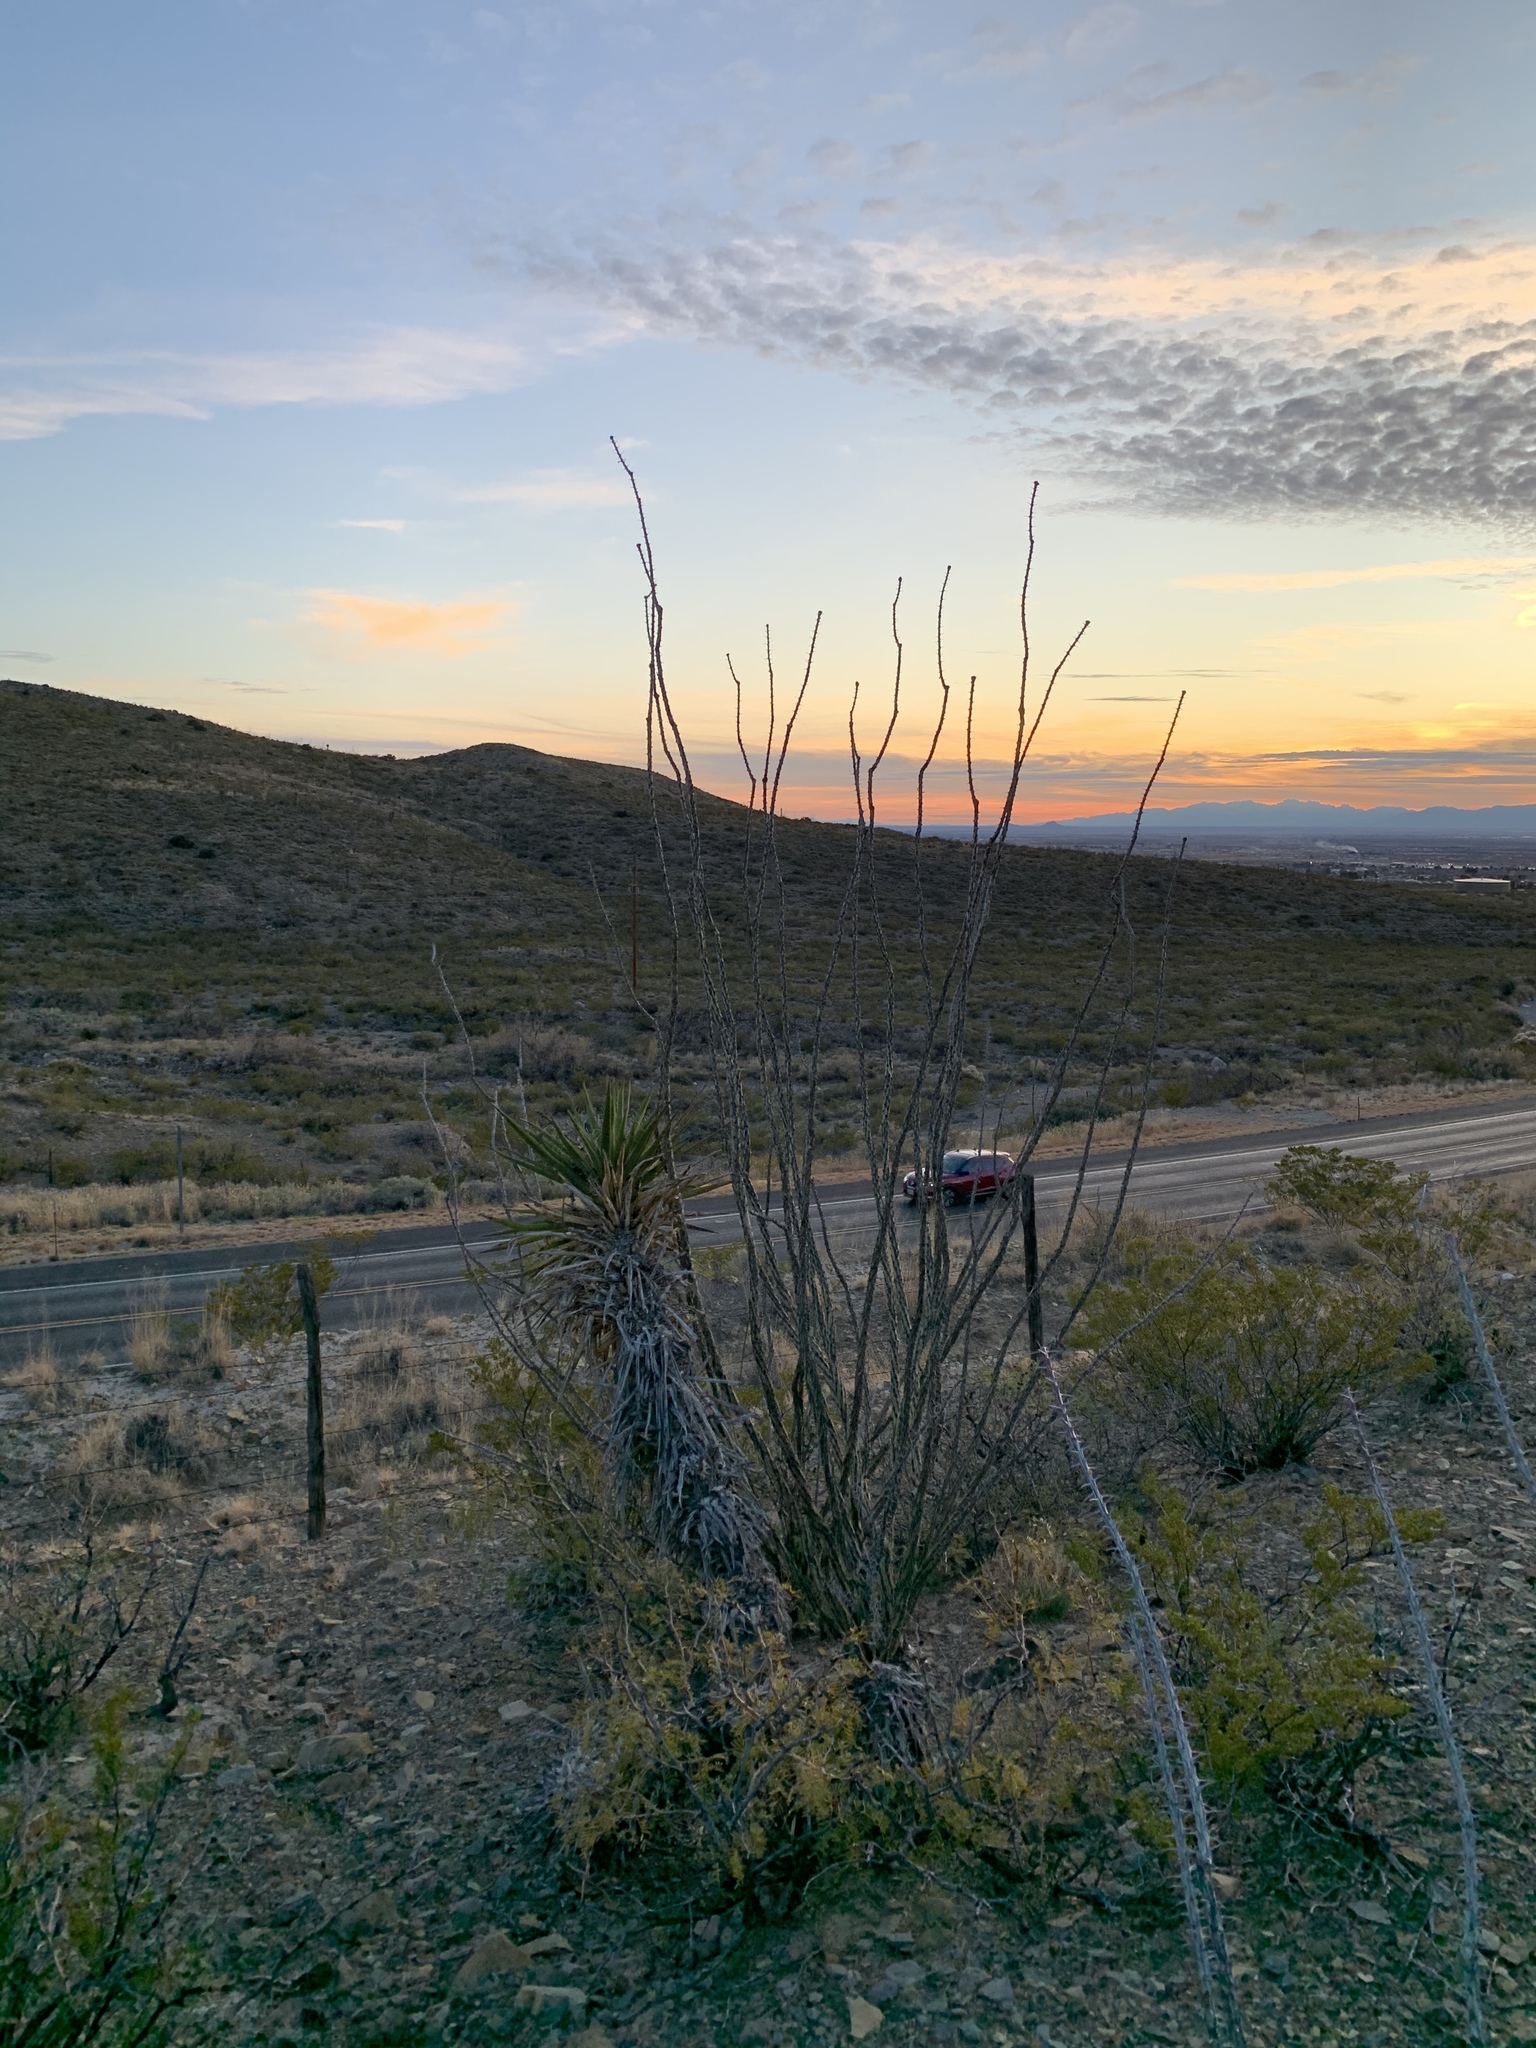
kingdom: Plantae
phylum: Tracheophyta
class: Magnoliopsida
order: Ericales
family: Fouquieriaceae
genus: Fouquieria
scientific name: Fouquieria splendens
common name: Vine-cactus
